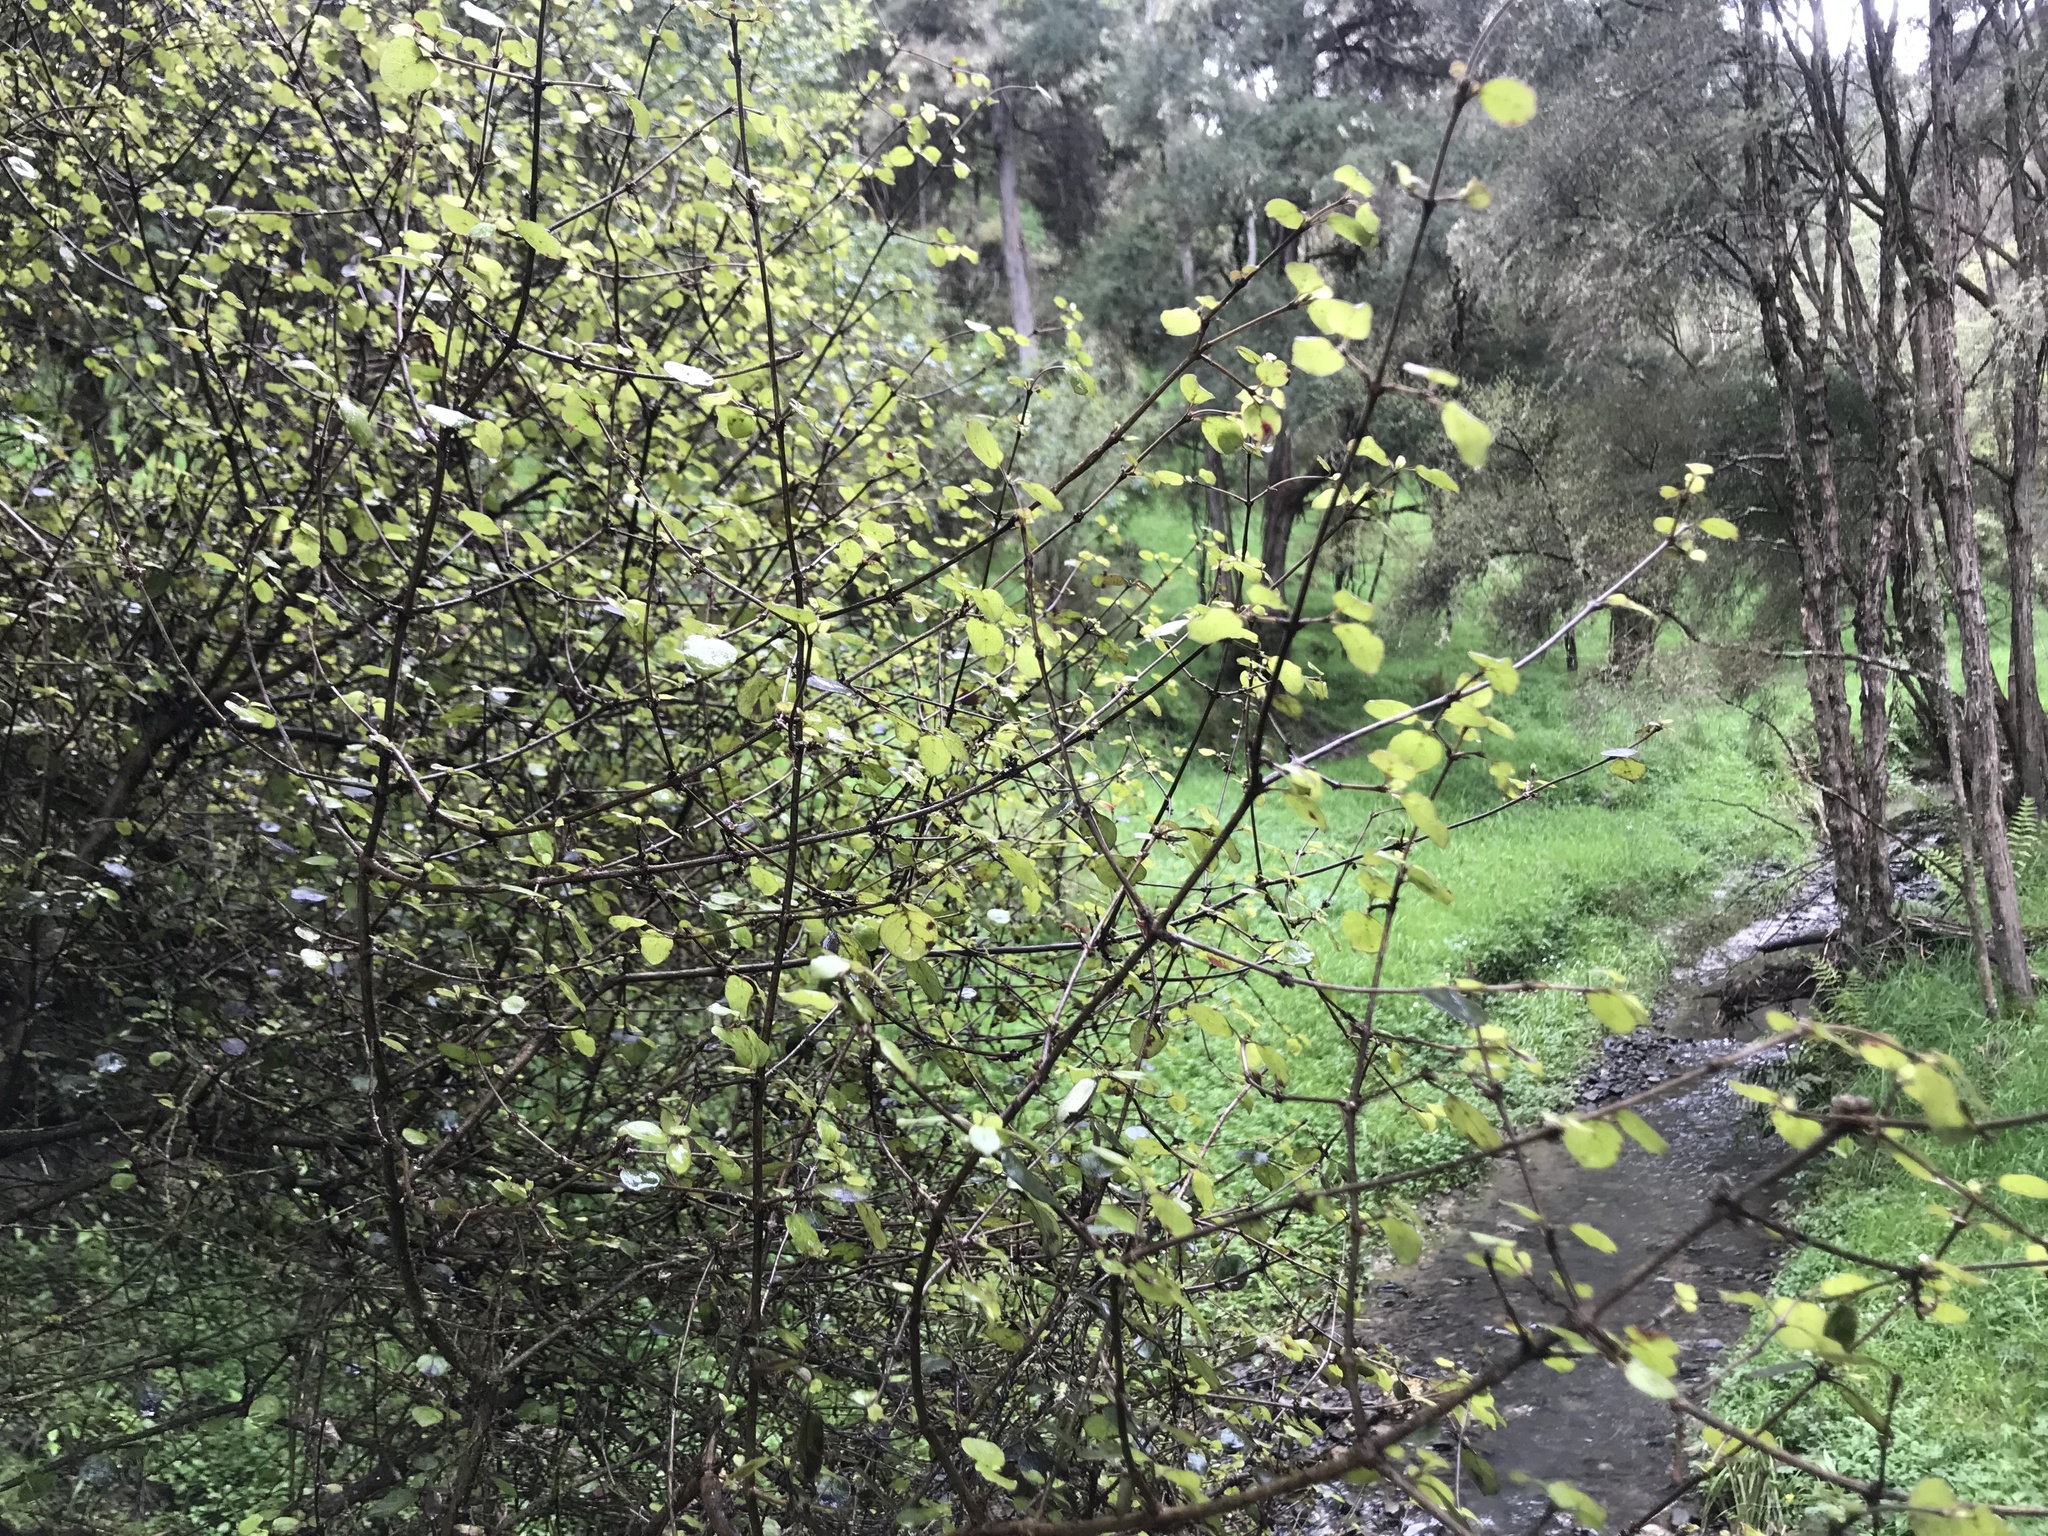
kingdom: Plantae
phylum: Tracheophyta
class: Magnoliopsida
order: Gentianales
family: Rubiaceae
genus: Coprosma
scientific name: Coprosma rotundifolia
